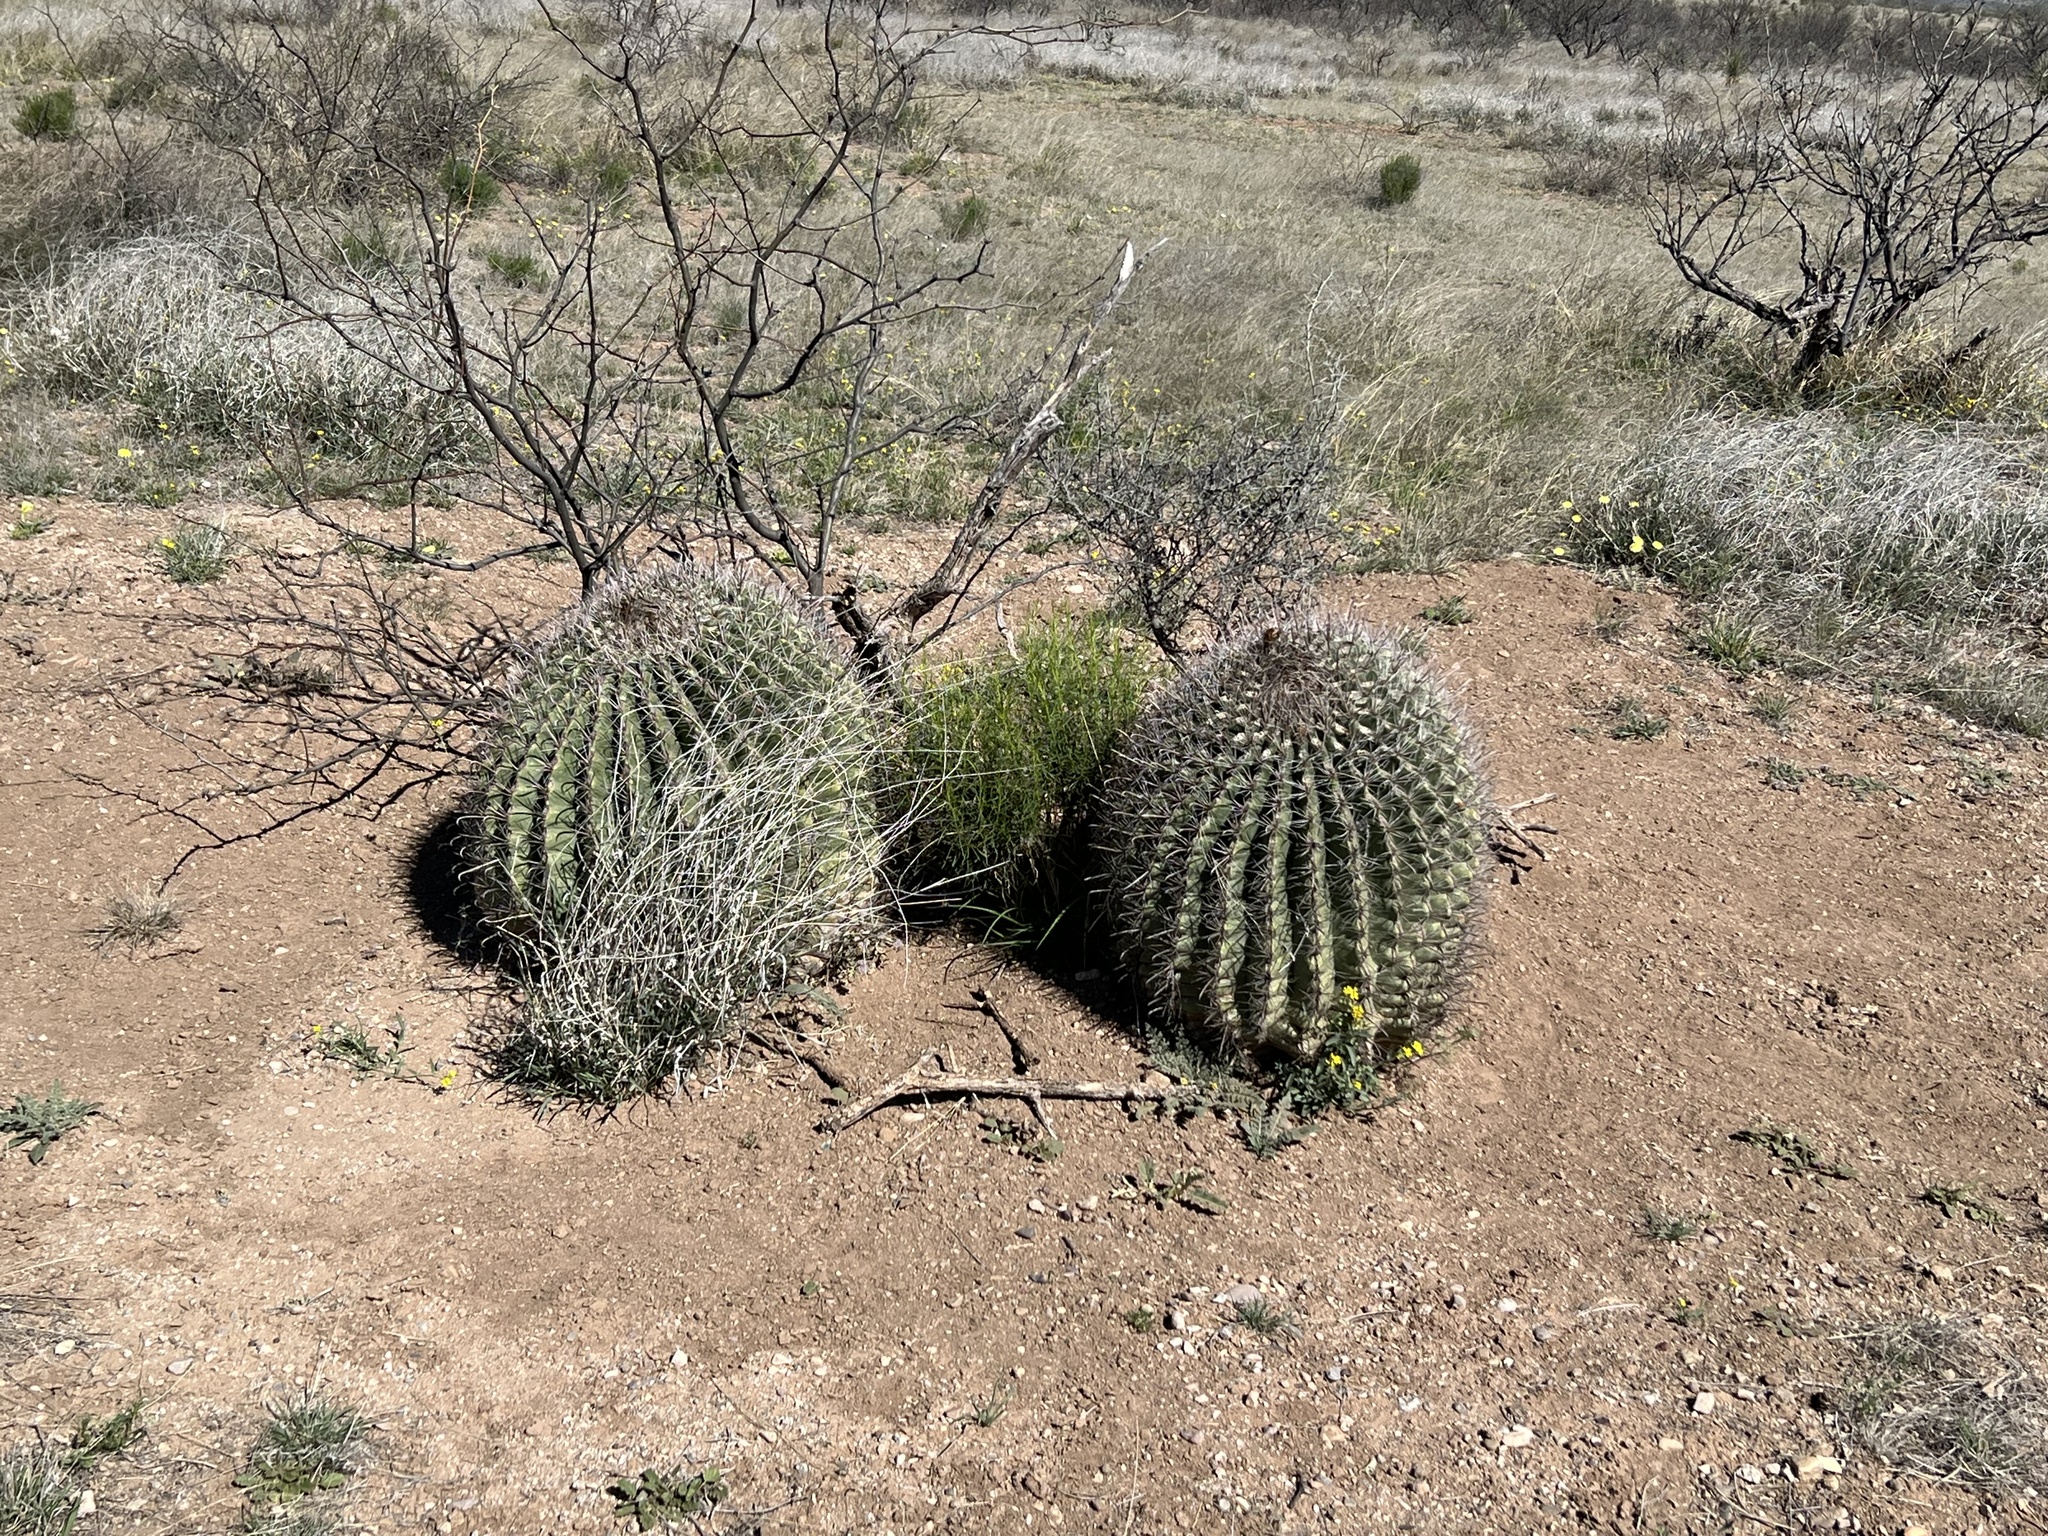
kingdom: Plantae
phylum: Tracheophyta
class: Magnoliopsida
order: Caryophyllales
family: Cactaceae
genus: Ferocactus
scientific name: Ferocactus wislizeni
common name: Candy barrel cactus
